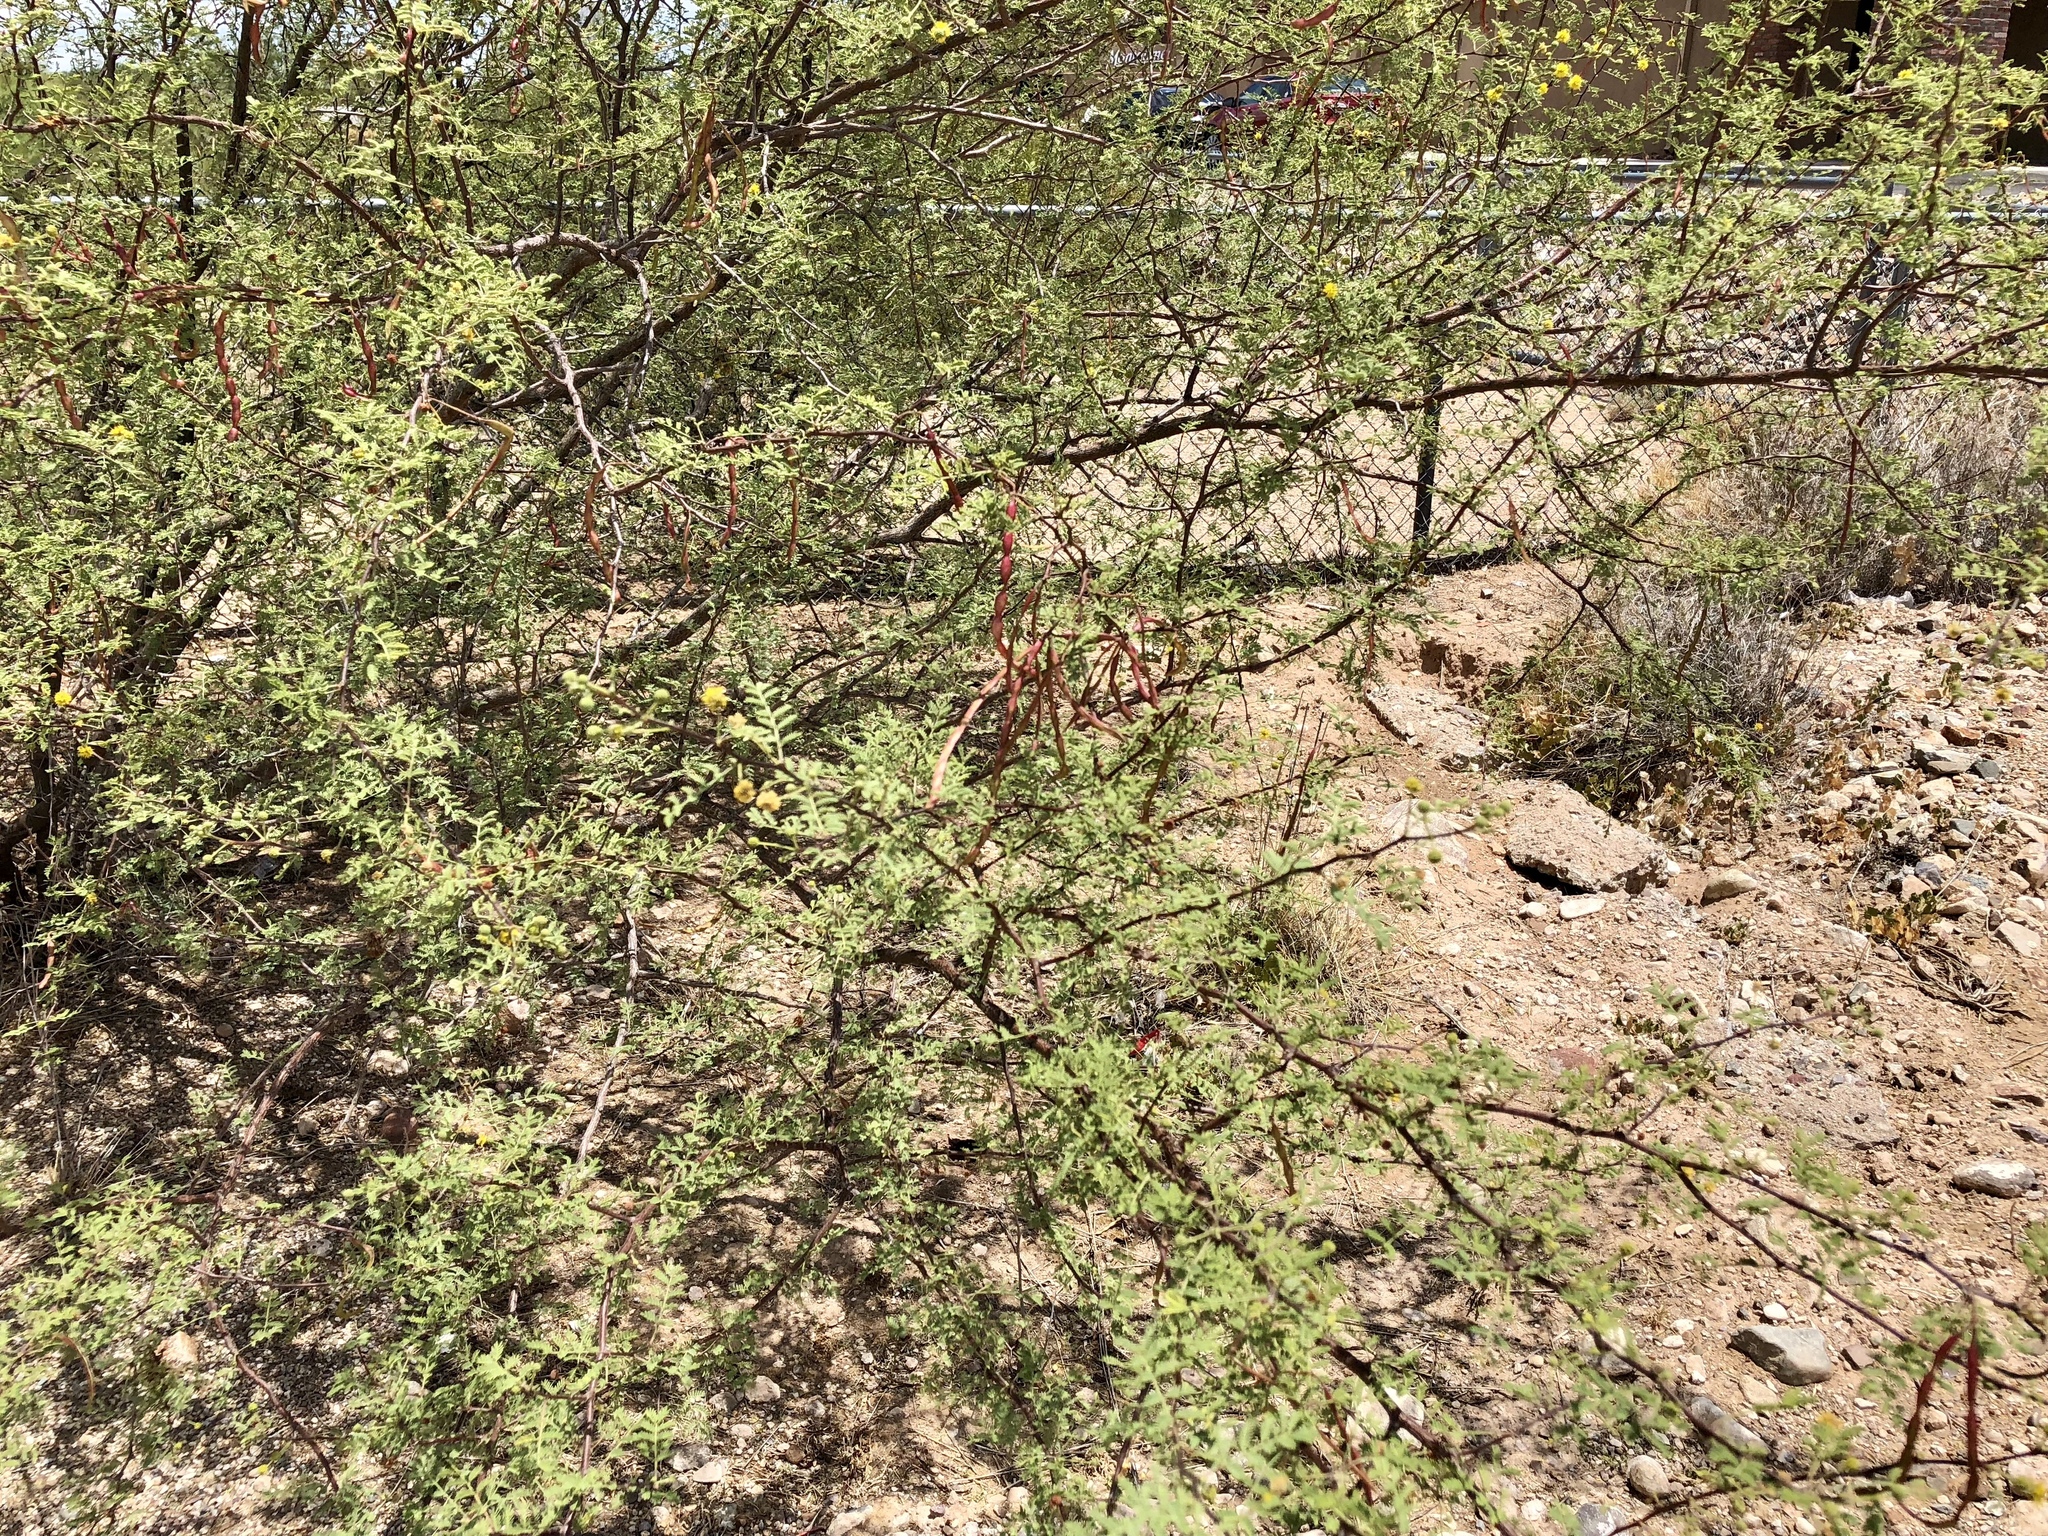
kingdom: Plantae
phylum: Tracheophyta
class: Magnoliopsida
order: Fabales
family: Fabaceae
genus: Vachellia
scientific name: Vachellia constricta
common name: Mescat acacia
